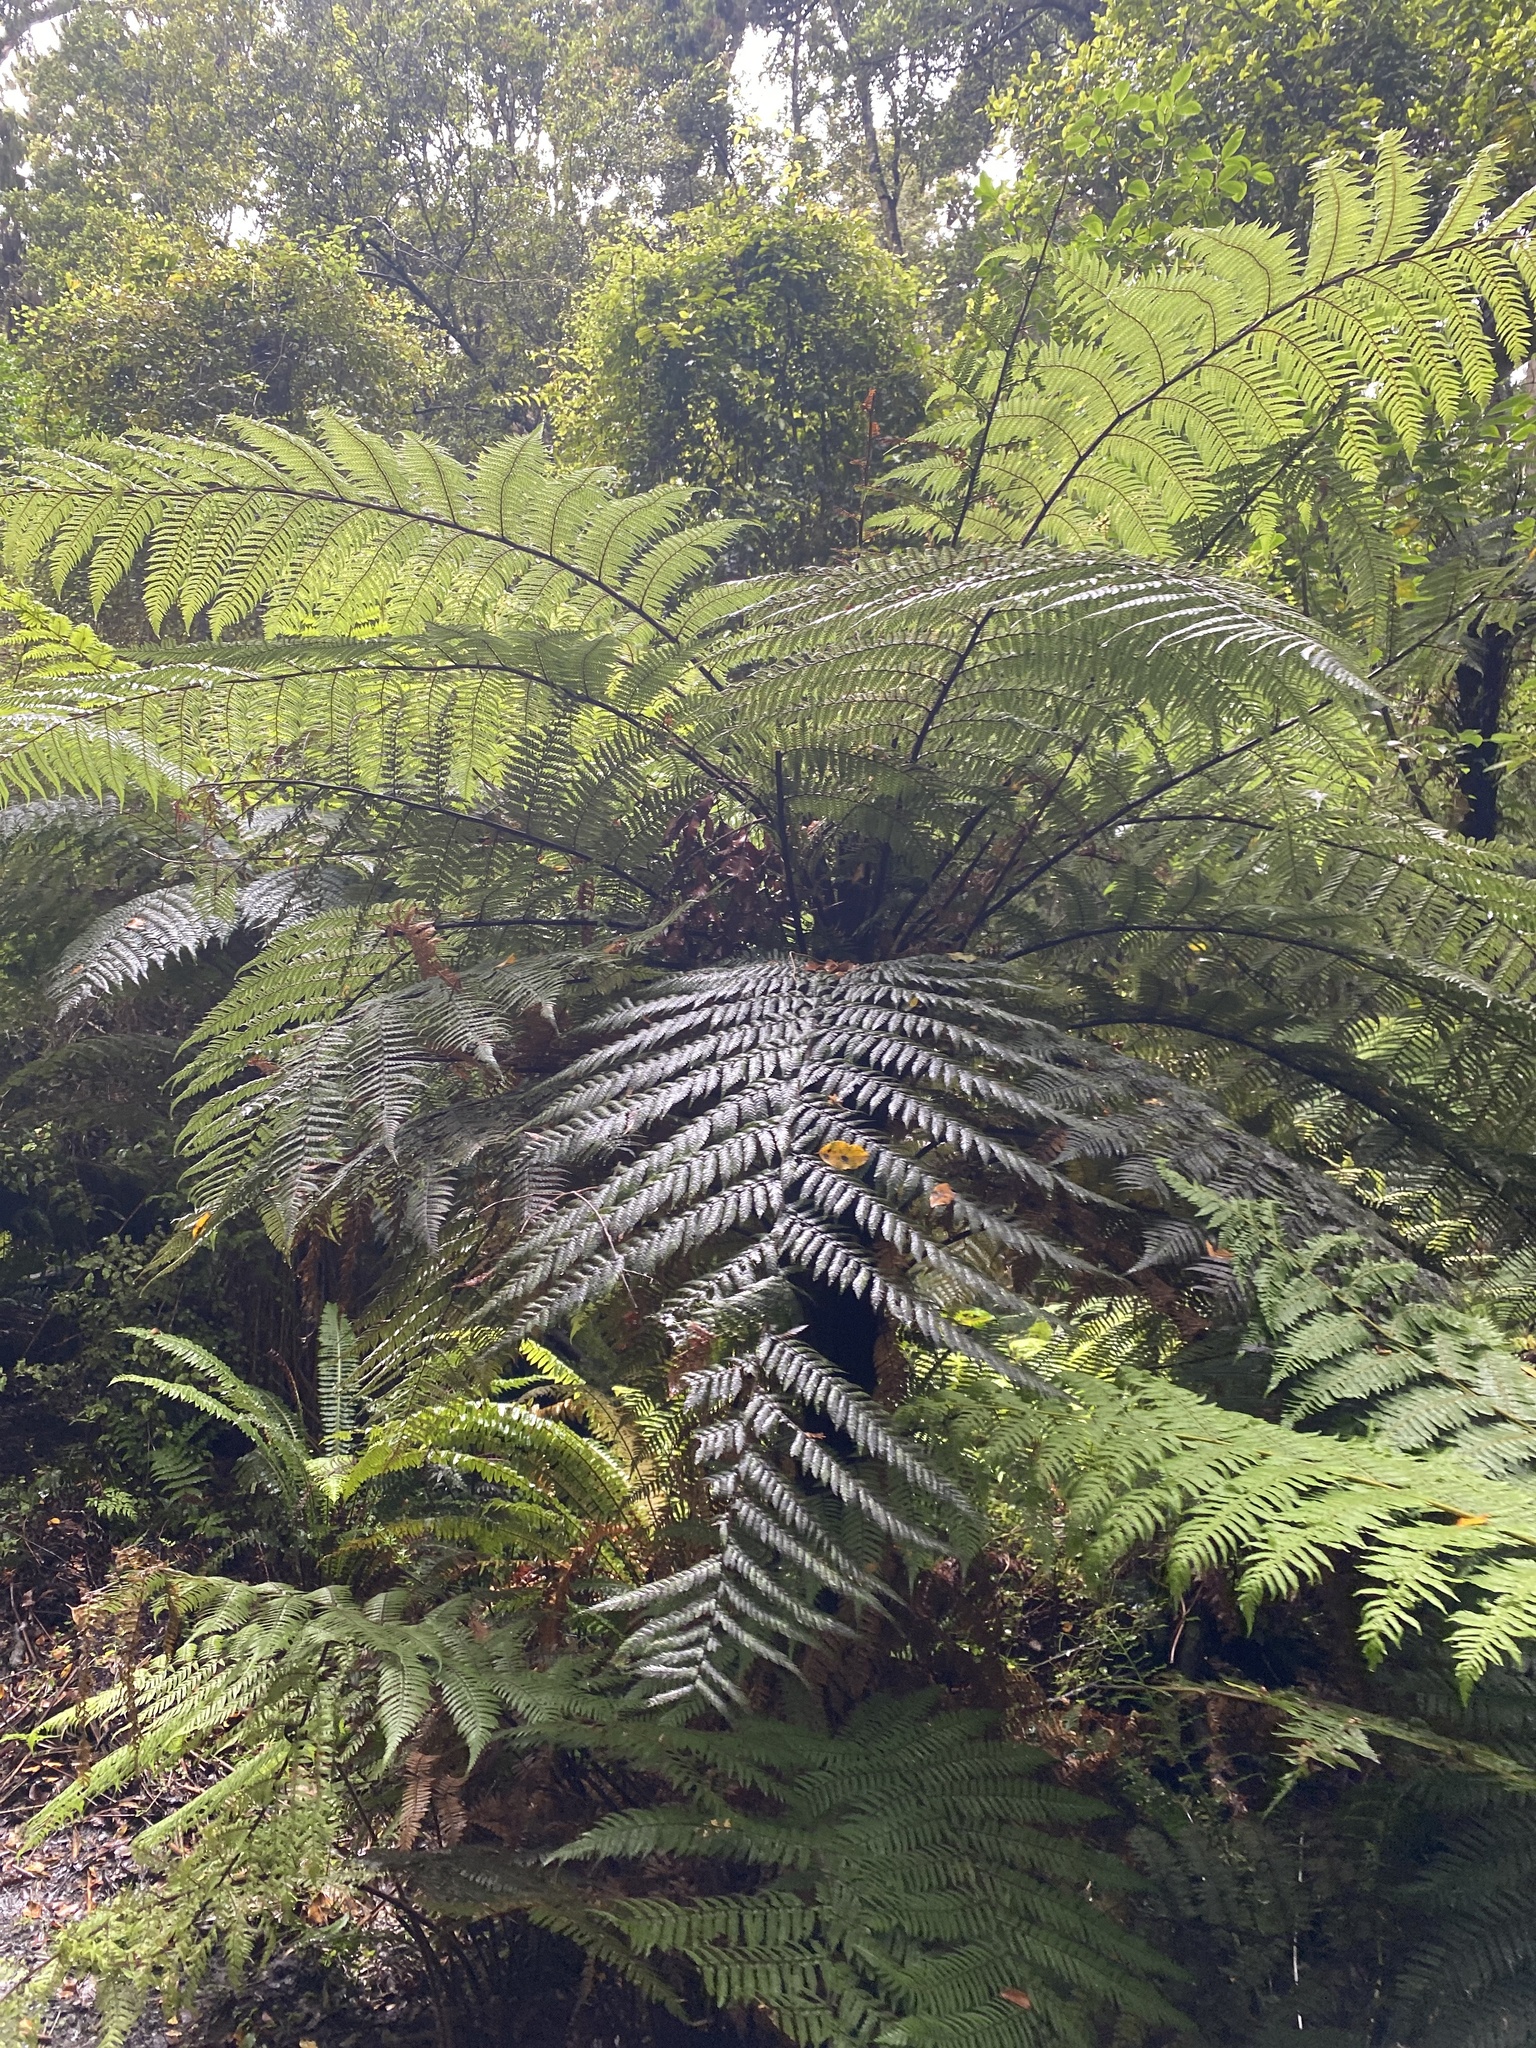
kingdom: Plantae
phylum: Tracheophyta
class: Polypodiopsida
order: Cyatheales
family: Cyatheaceae
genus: Alsophila
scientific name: Alsophila smithii
